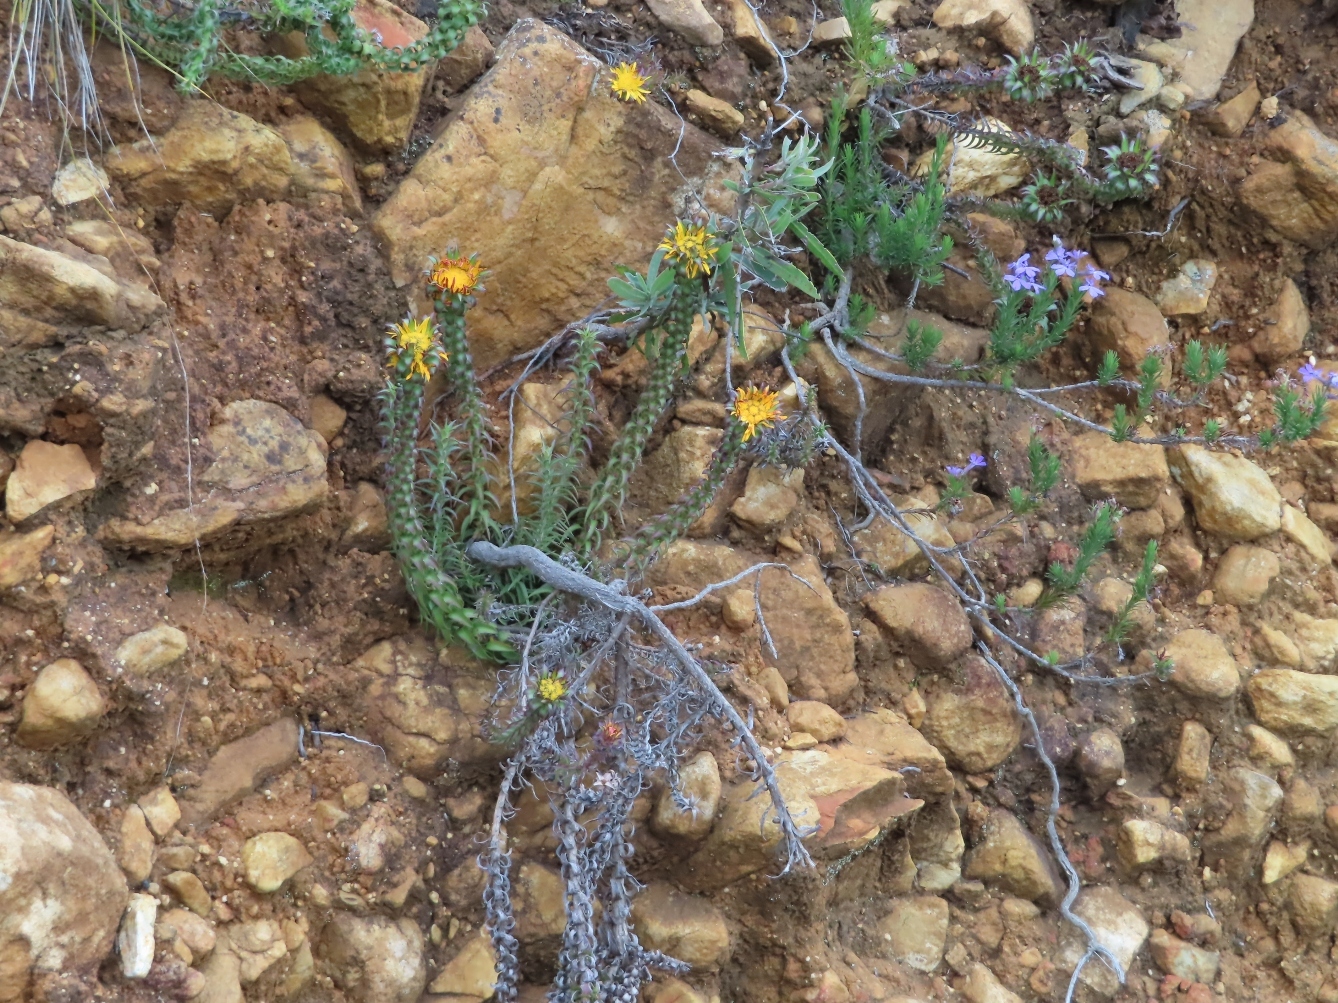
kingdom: Plantae
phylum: Tracheophyta
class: Magnoliopsida
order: Asterales
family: Asteraceae
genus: Oedera
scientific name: Oedera imbricata
